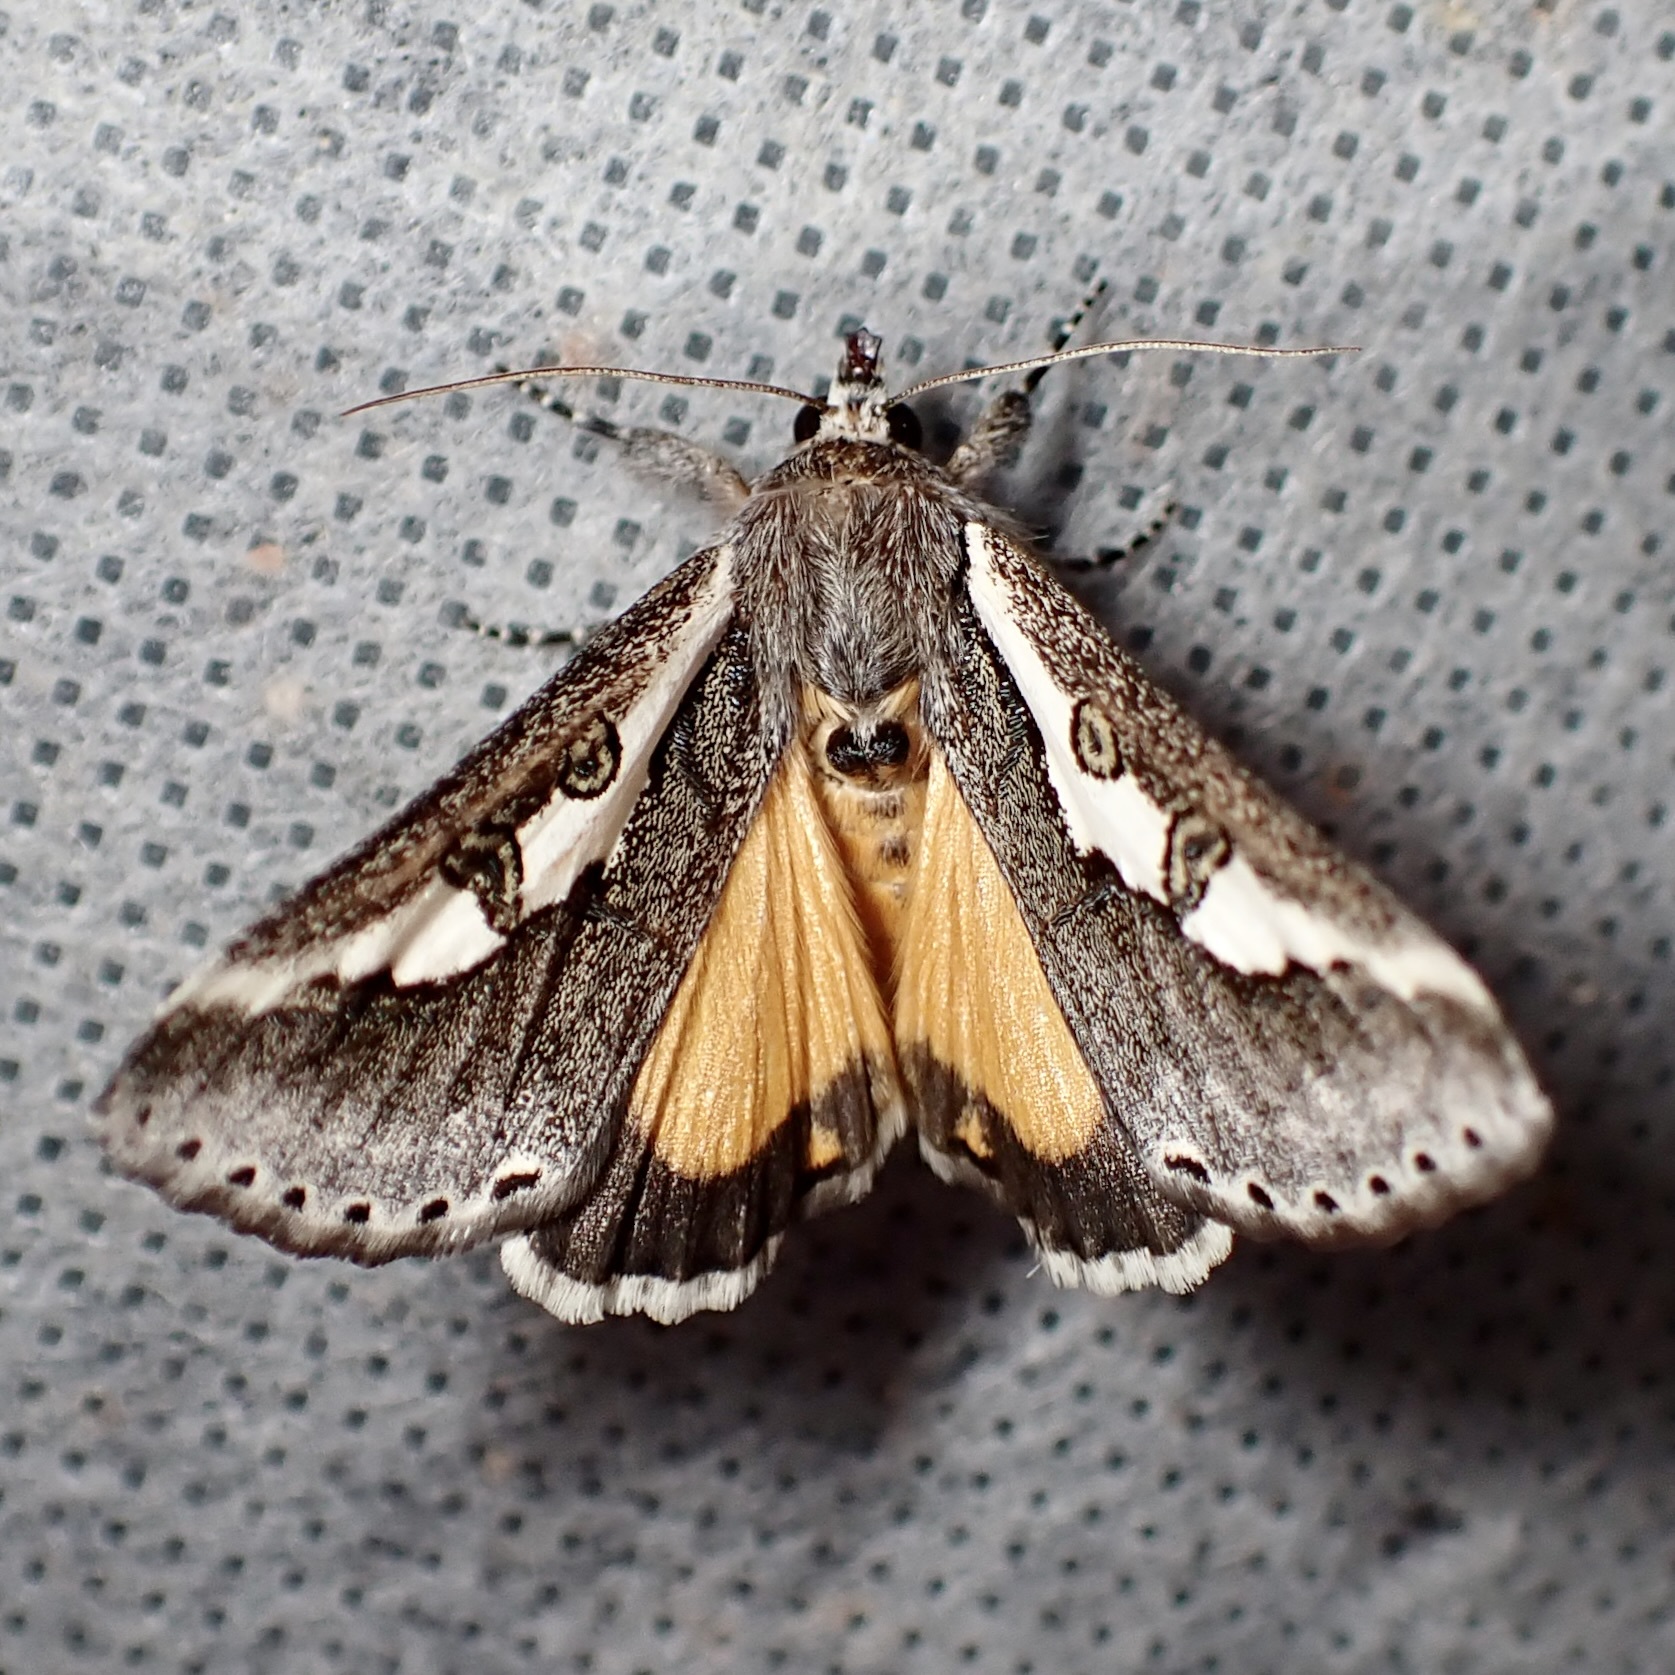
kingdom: Animalia
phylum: Arthropoda
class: Insecta
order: Lepidoptera
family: Noctuidae
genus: Euscirrhopterus
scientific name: Euscirrhopterus gloveri
